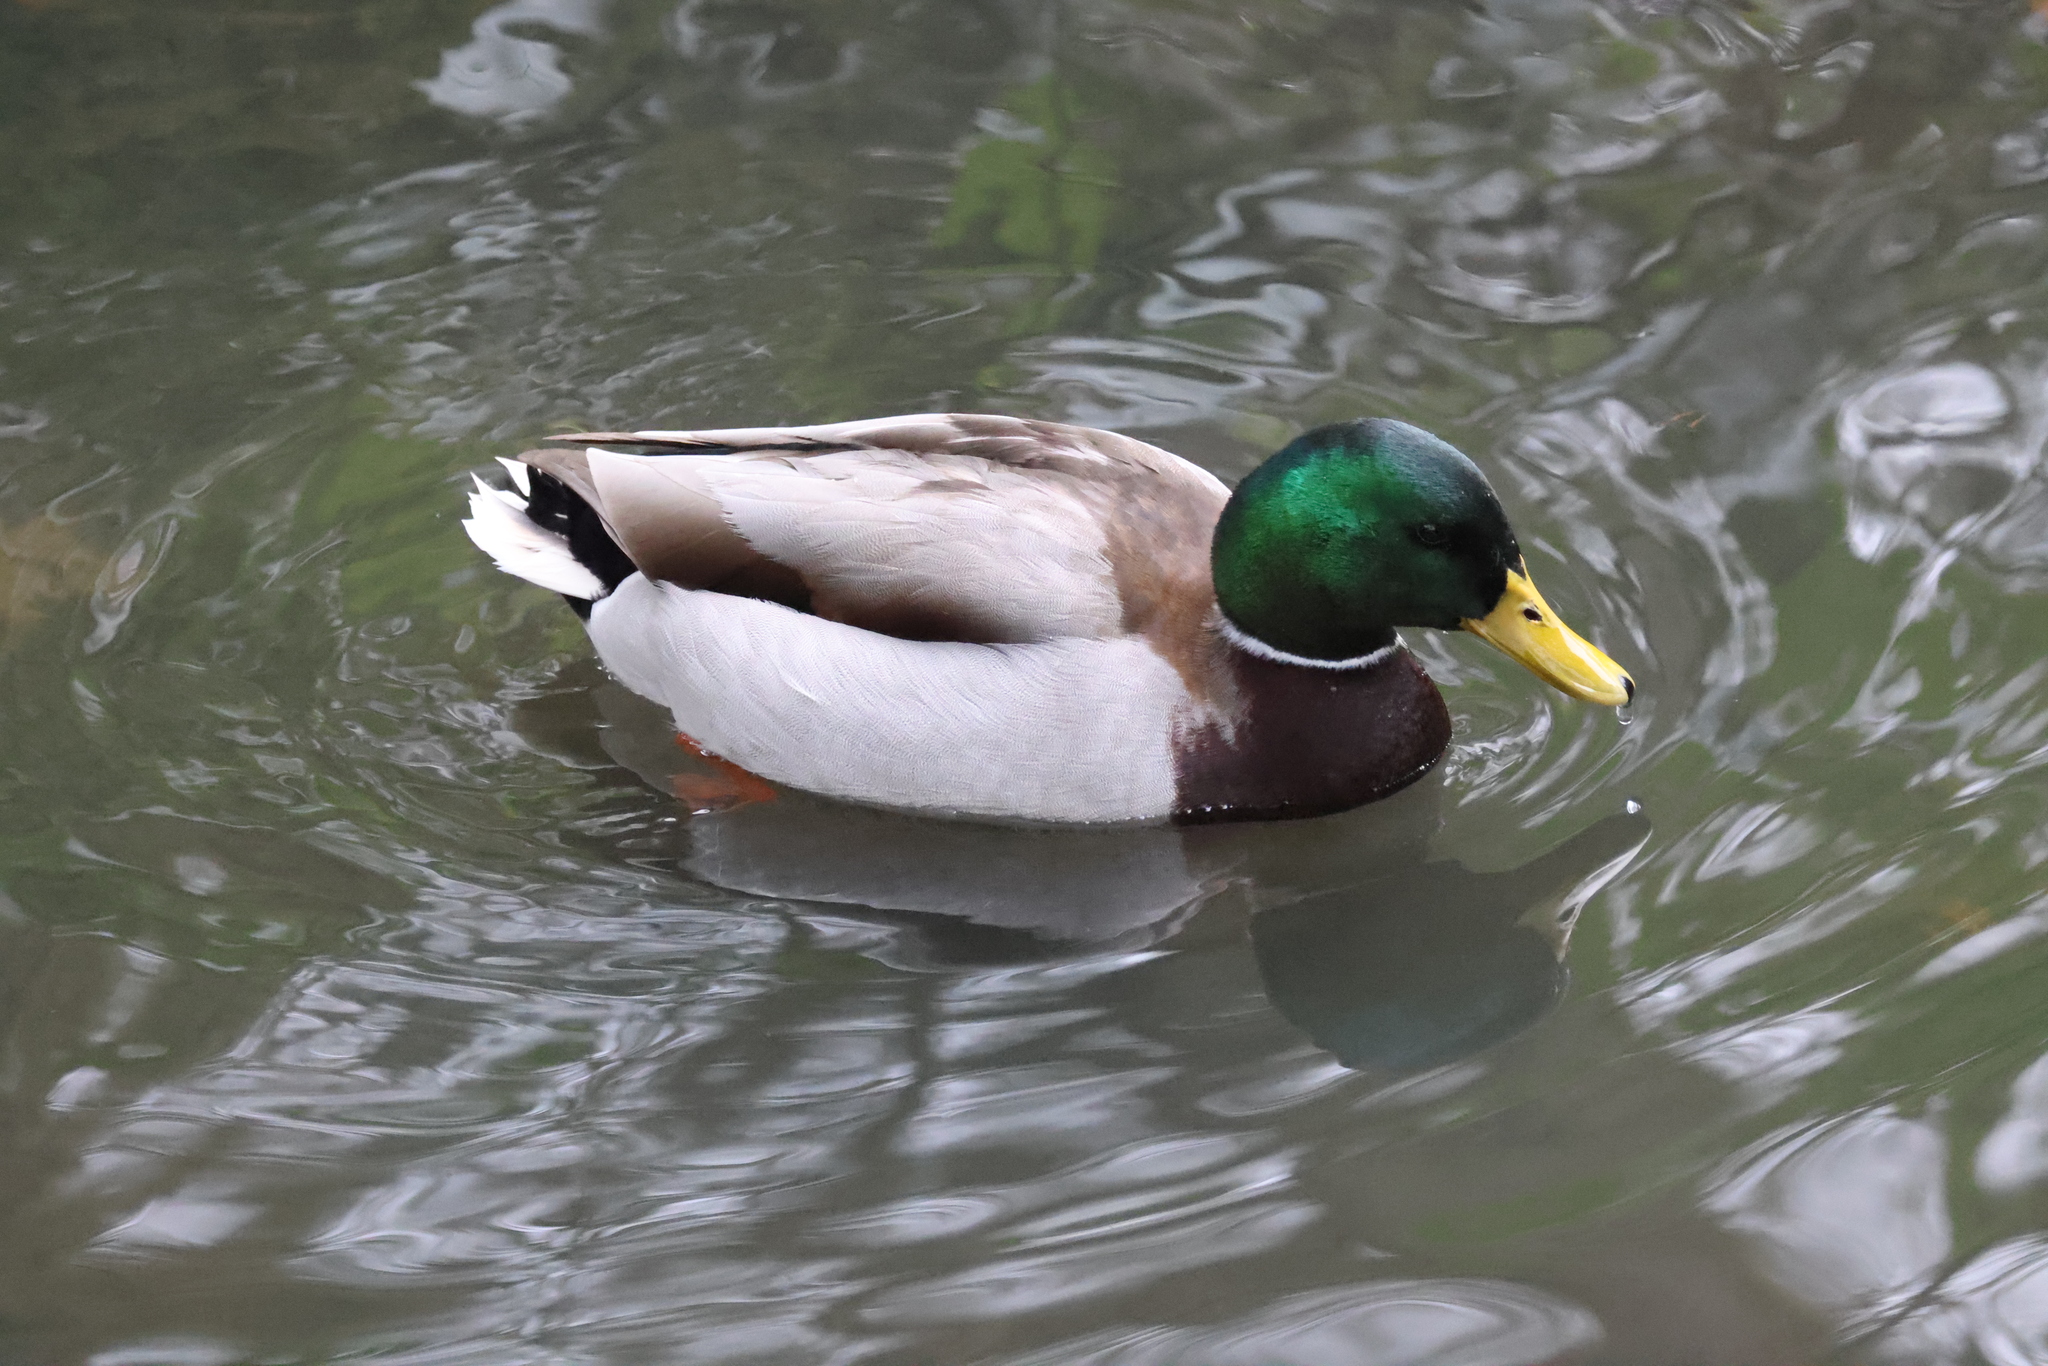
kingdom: Animalia
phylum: Chordata
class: Aves
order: Anseriformes
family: Anatidae
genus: Anas
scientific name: Anas platyrhynchos
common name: Mallard
